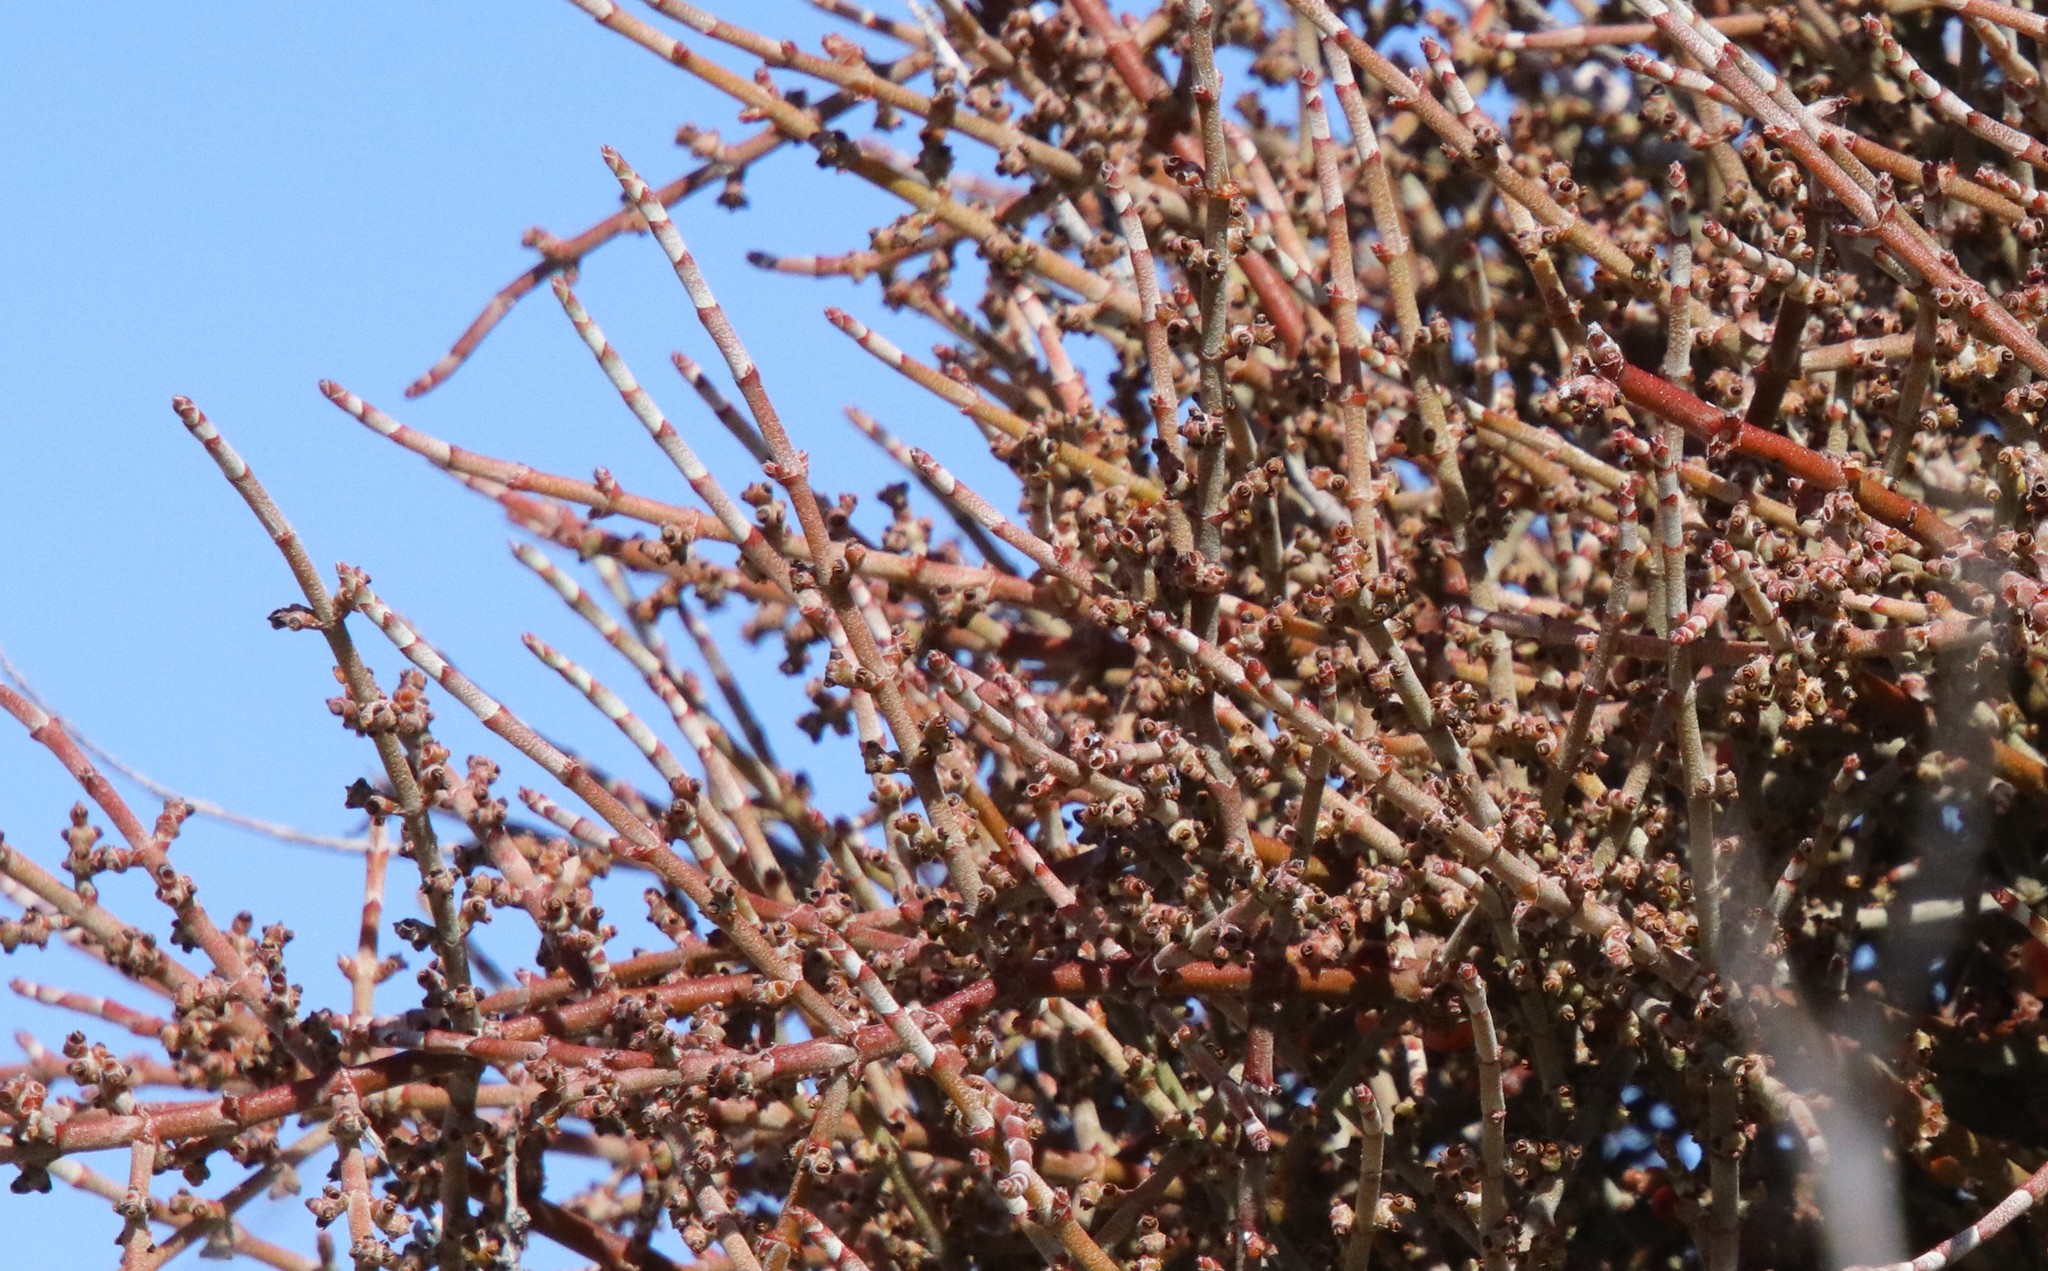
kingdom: Plantae
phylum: Tracheophyta
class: Magnoliopsida
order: Santalales
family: Viscaceae
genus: Phoradendron
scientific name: Phoradendron californicum
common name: Acacia mistletoe
